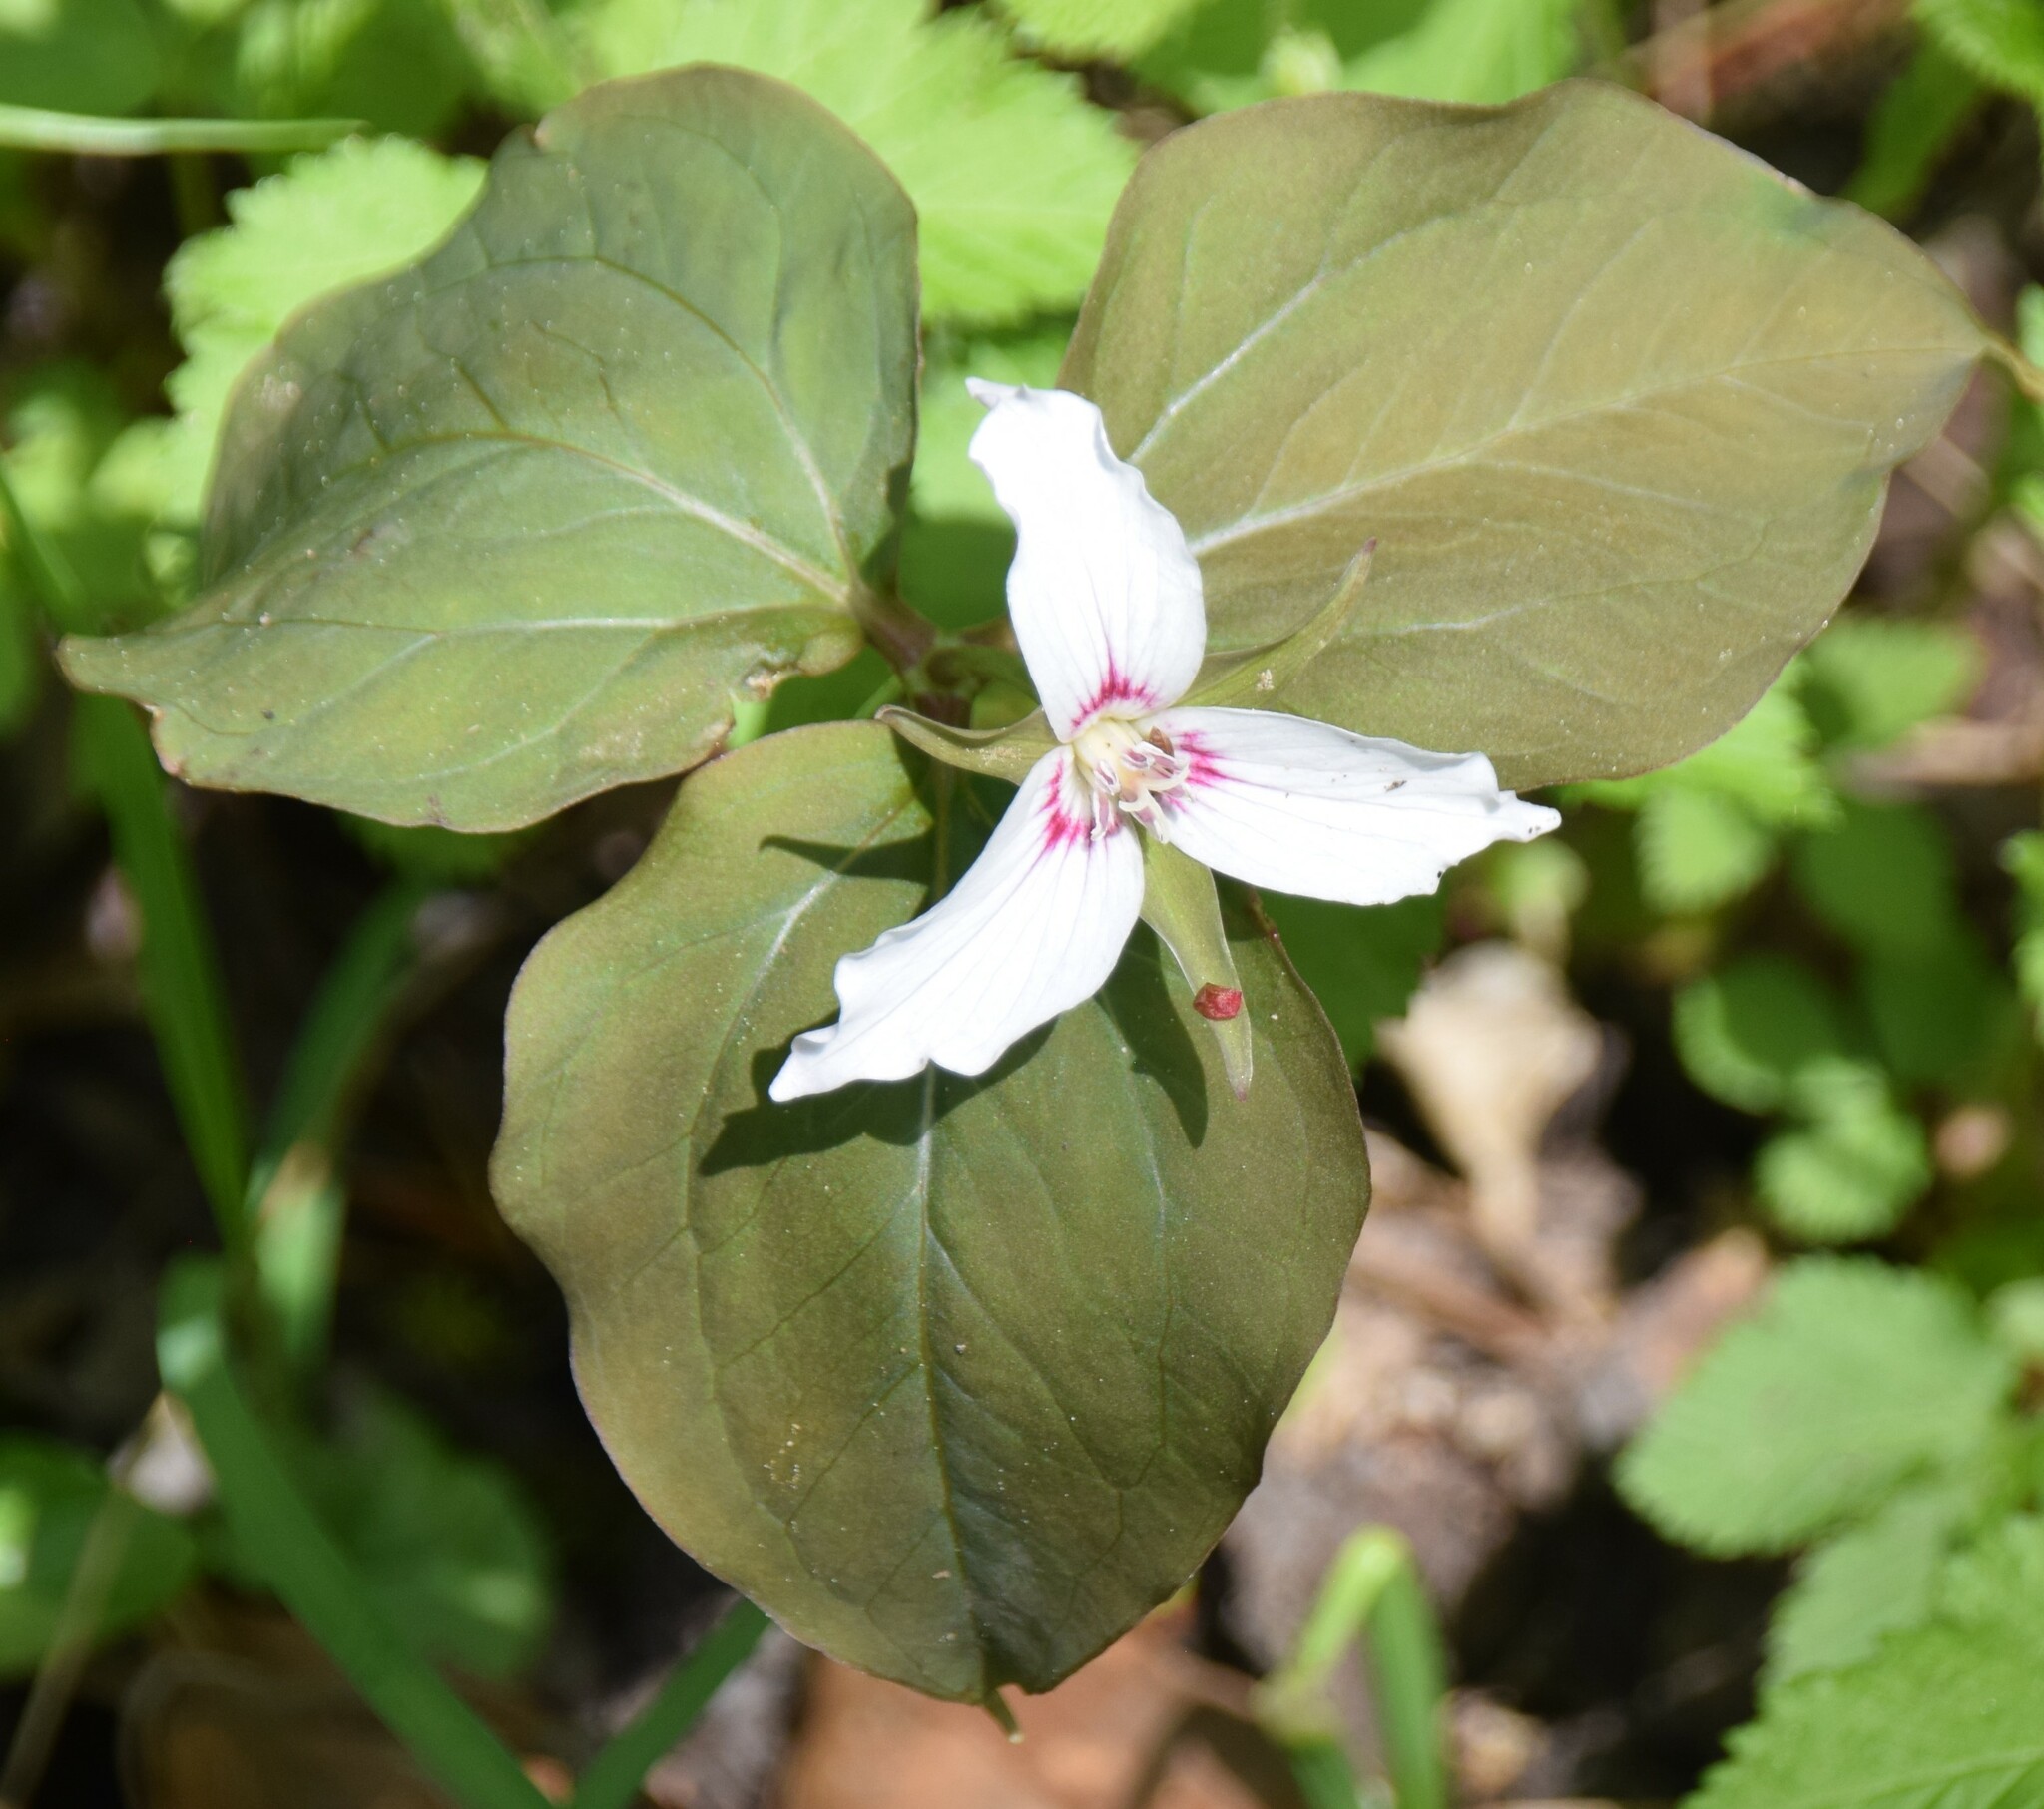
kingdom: Plantae
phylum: Tracheophyta
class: Liliopsida
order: Liliales
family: Melanthiaceae
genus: Trillium
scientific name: Trillium undulatum
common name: Paint trillium
